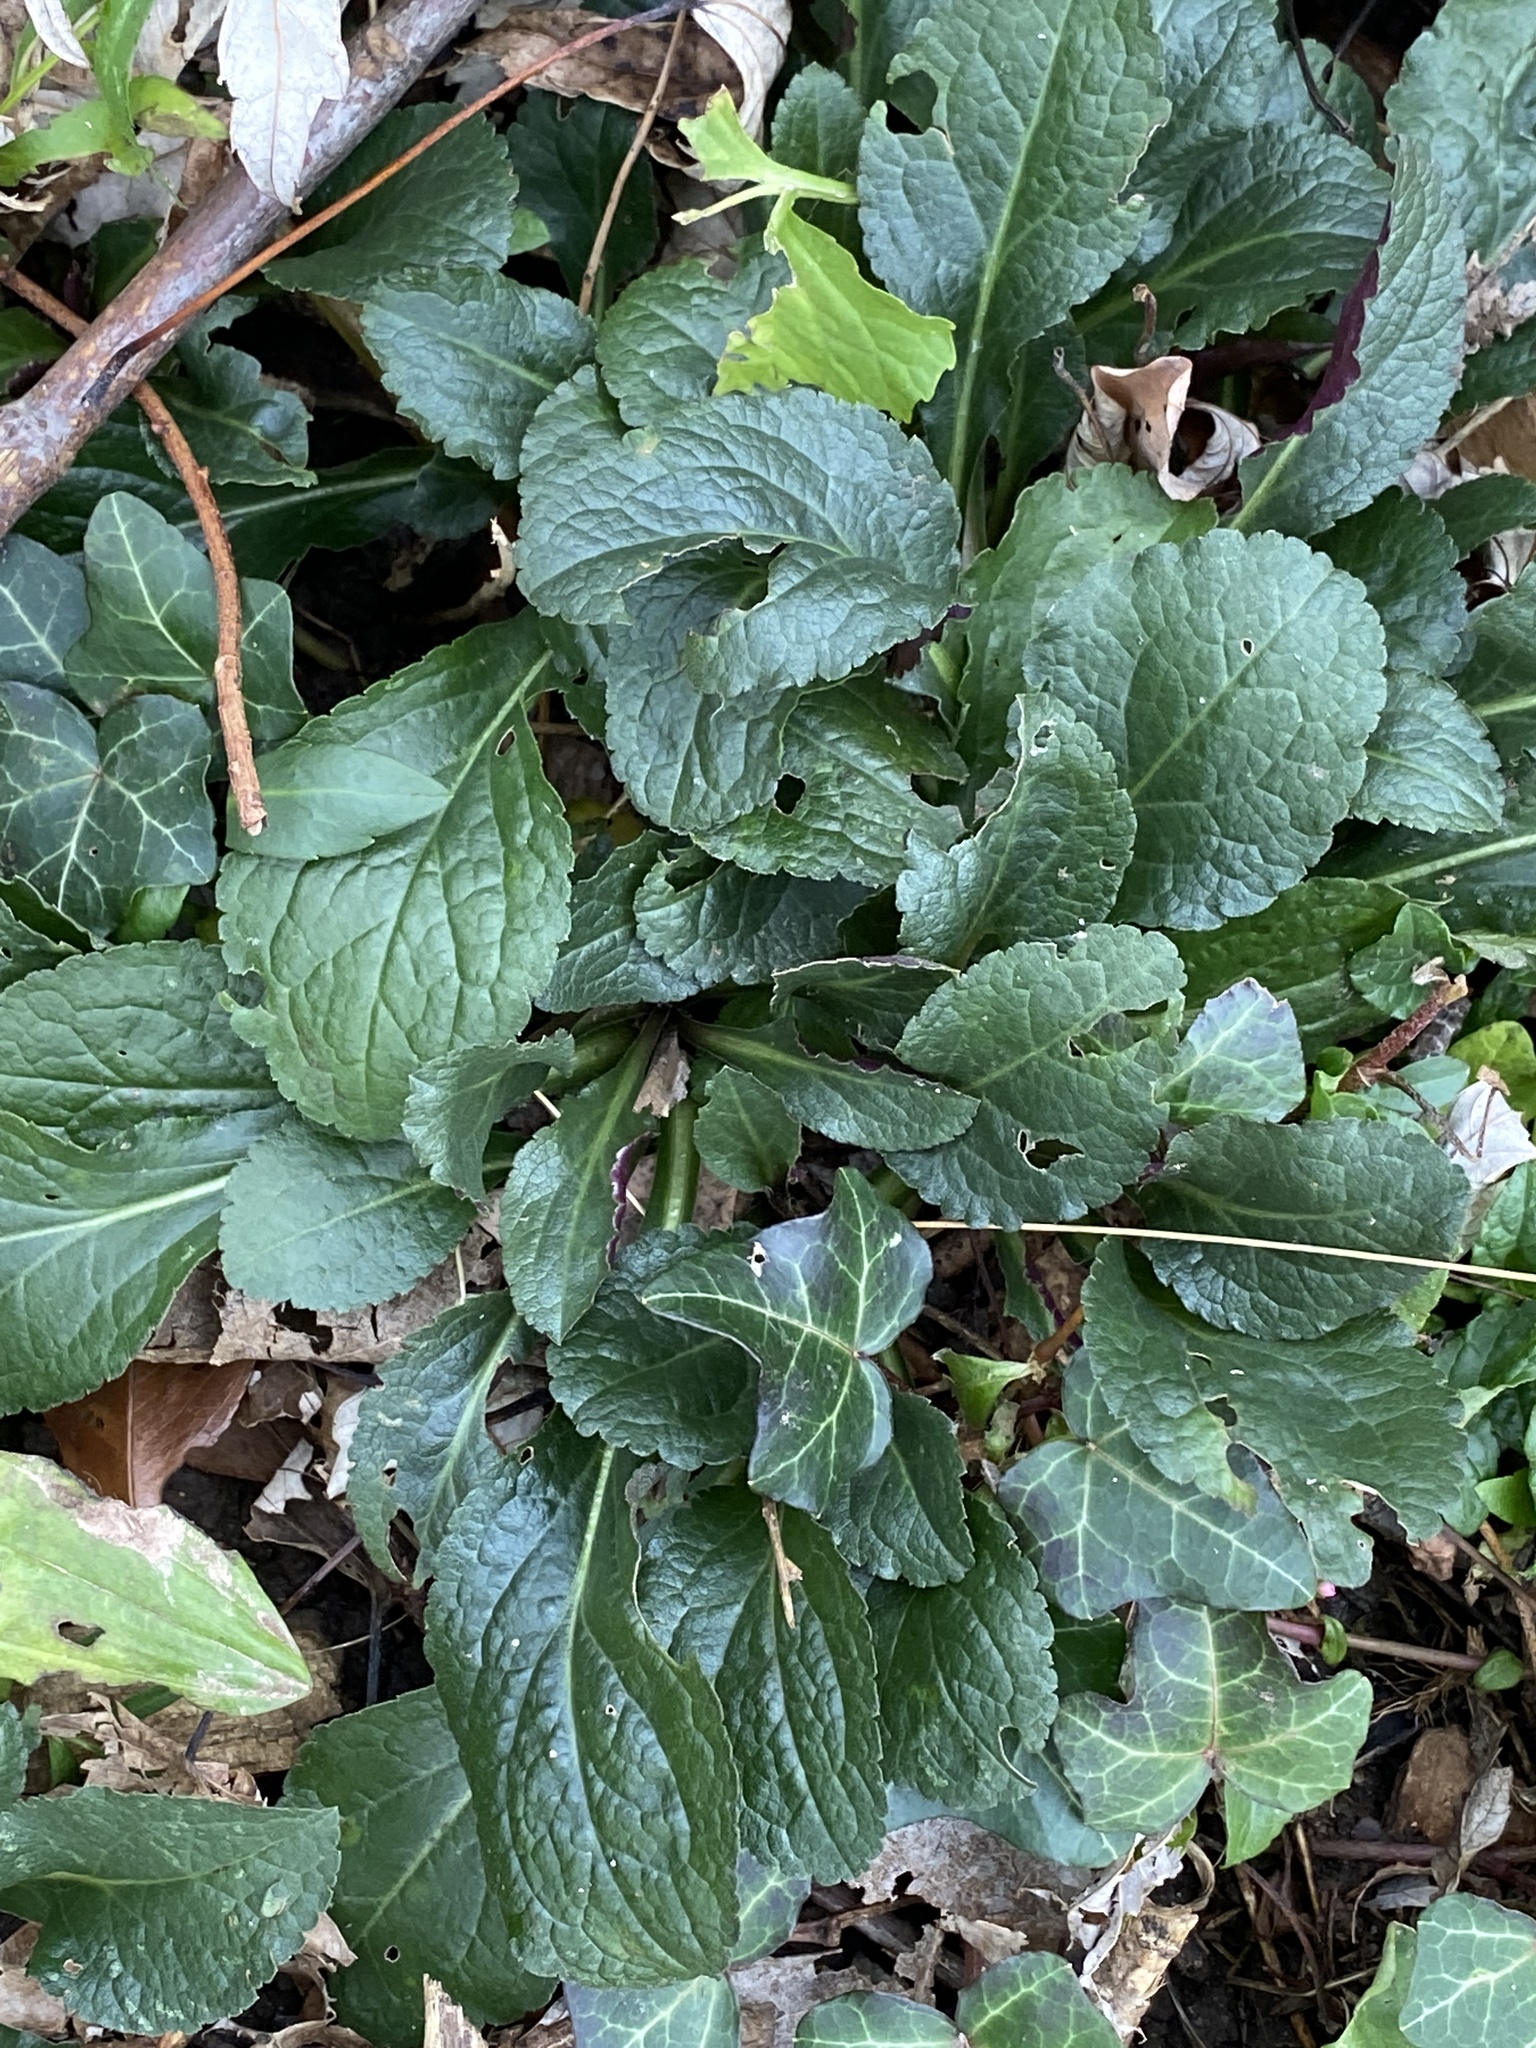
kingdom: Plantae
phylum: Tracheophyta
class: Magnoliopsida
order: Lamiales
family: Lamiaceae
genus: Ajuga
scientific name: Ajuga reptans
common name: Bugle
